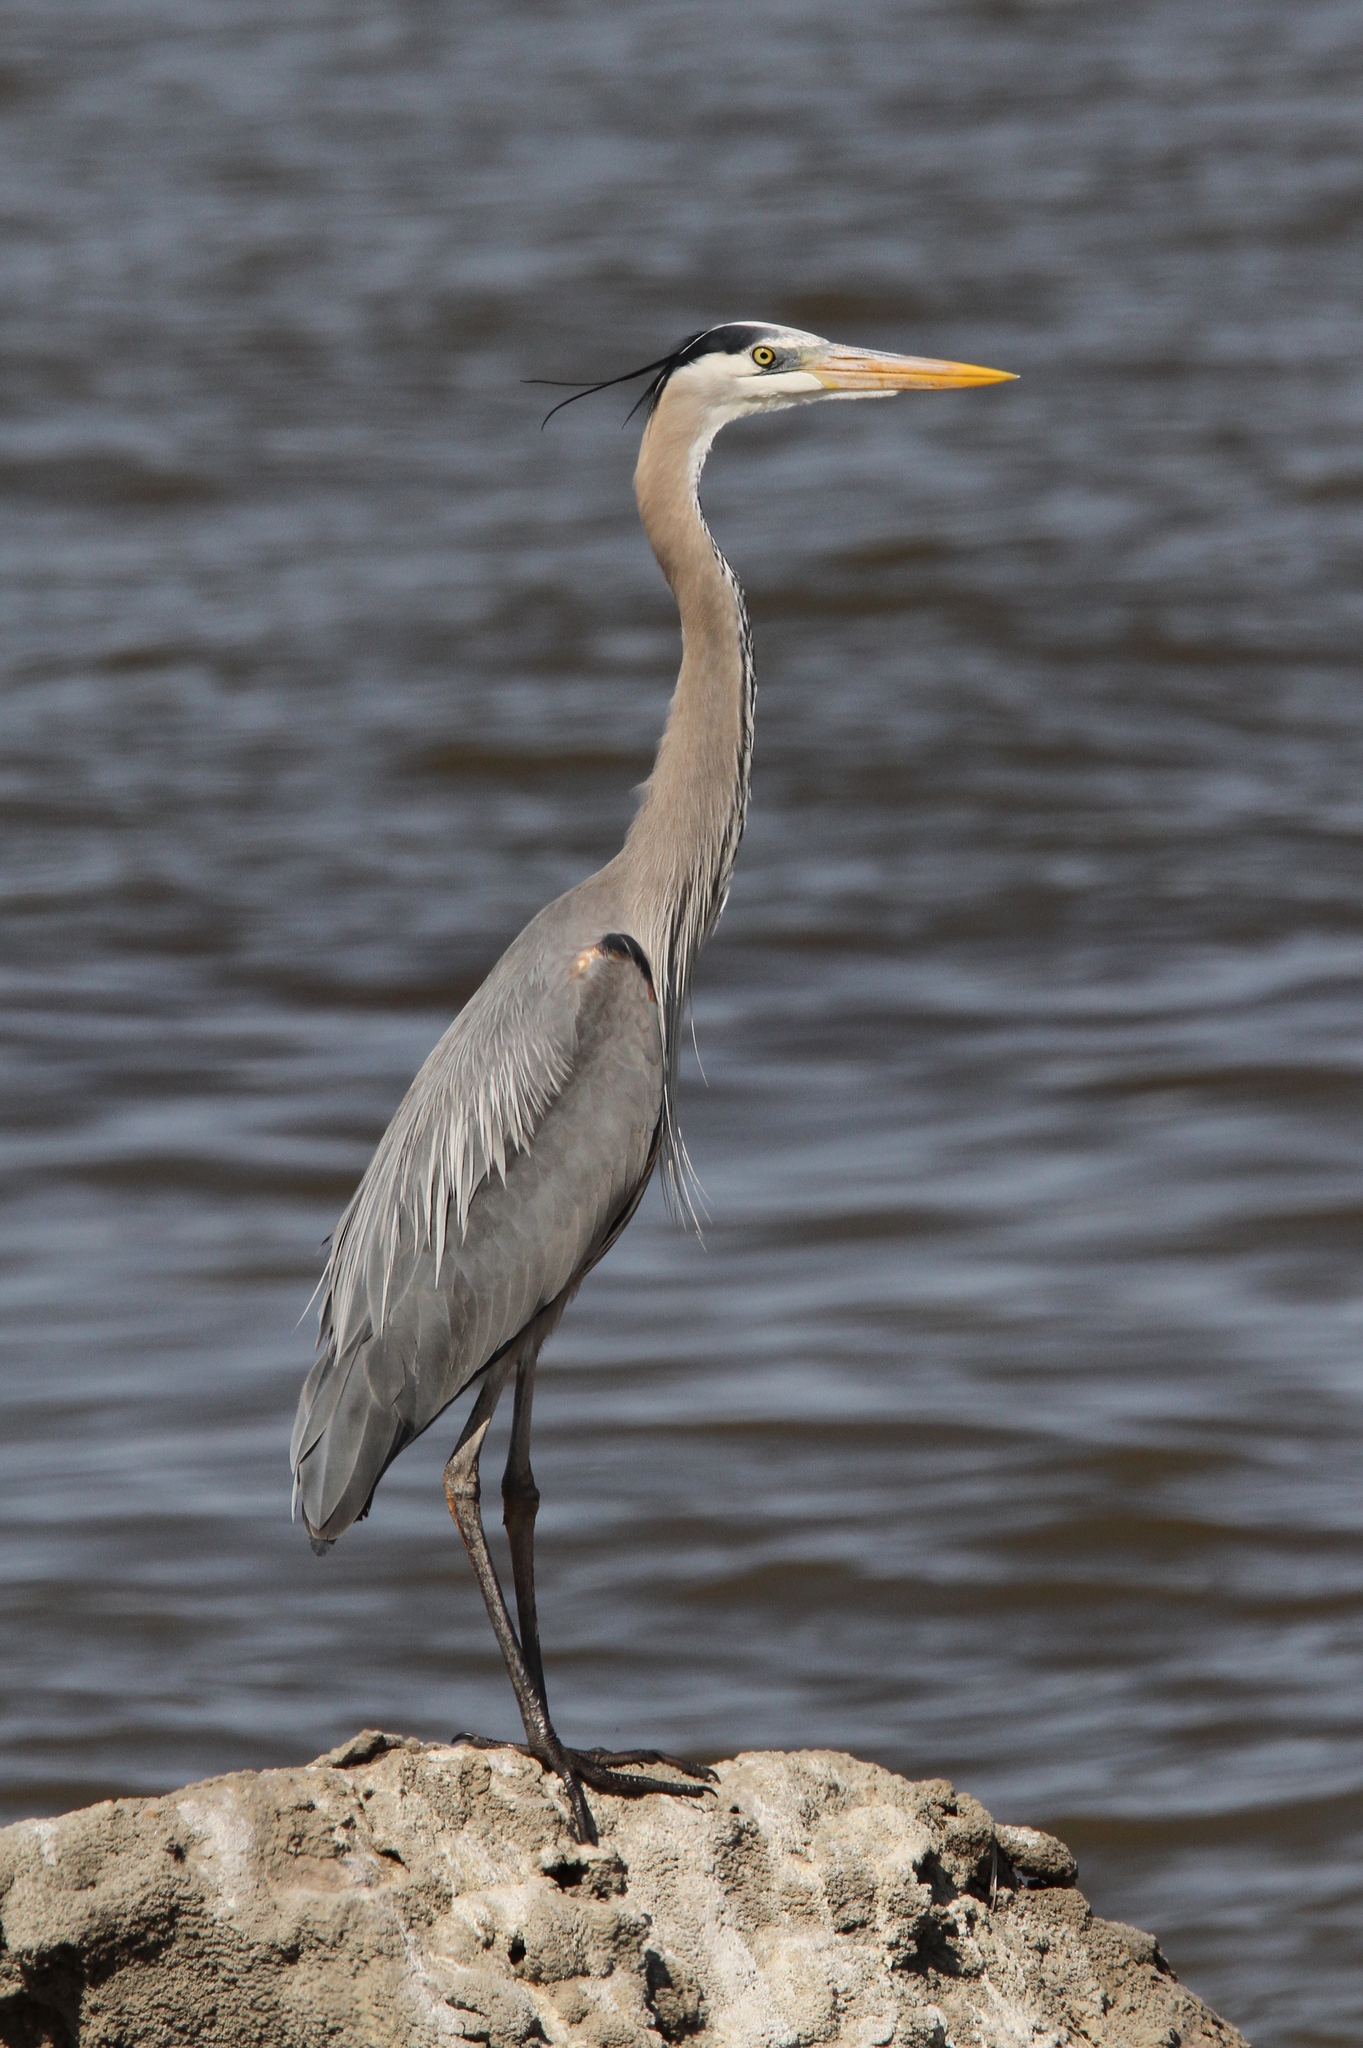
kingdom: Animalia
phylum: Chordata
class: Aves
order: Pelecaniformes
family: Ardeidae
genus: Ardea
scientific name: Ardea herodias
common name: Great blue heron
